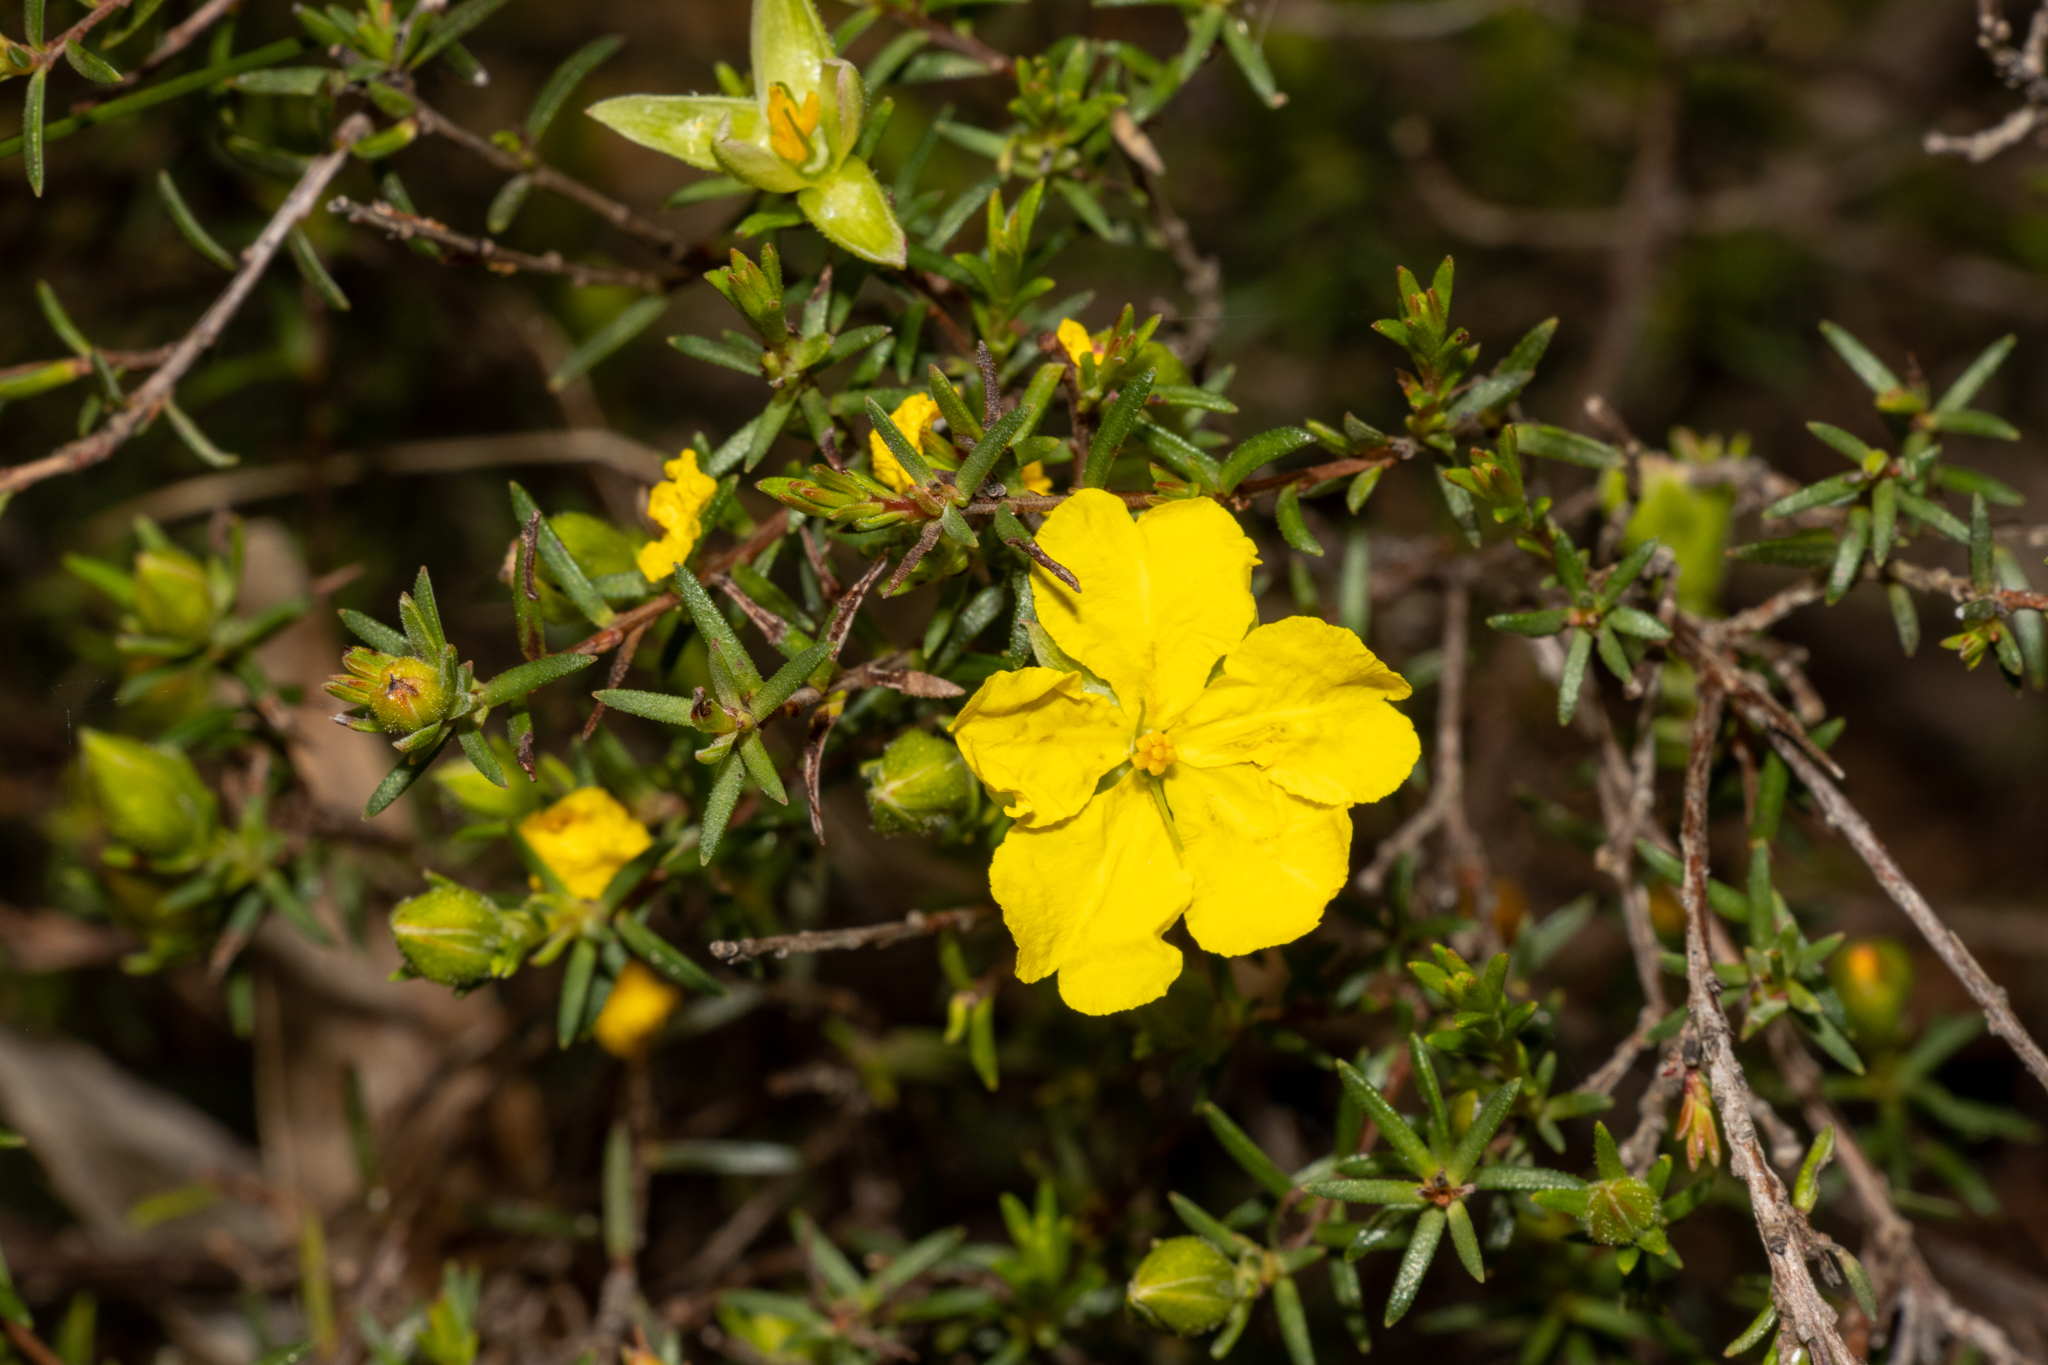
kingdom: Plantae
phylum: Tracheophyta
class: Magnoliopsida
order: Dilleniales
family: Dilleniaceae
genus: Hibbertia
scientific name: Hibbertia devitata
